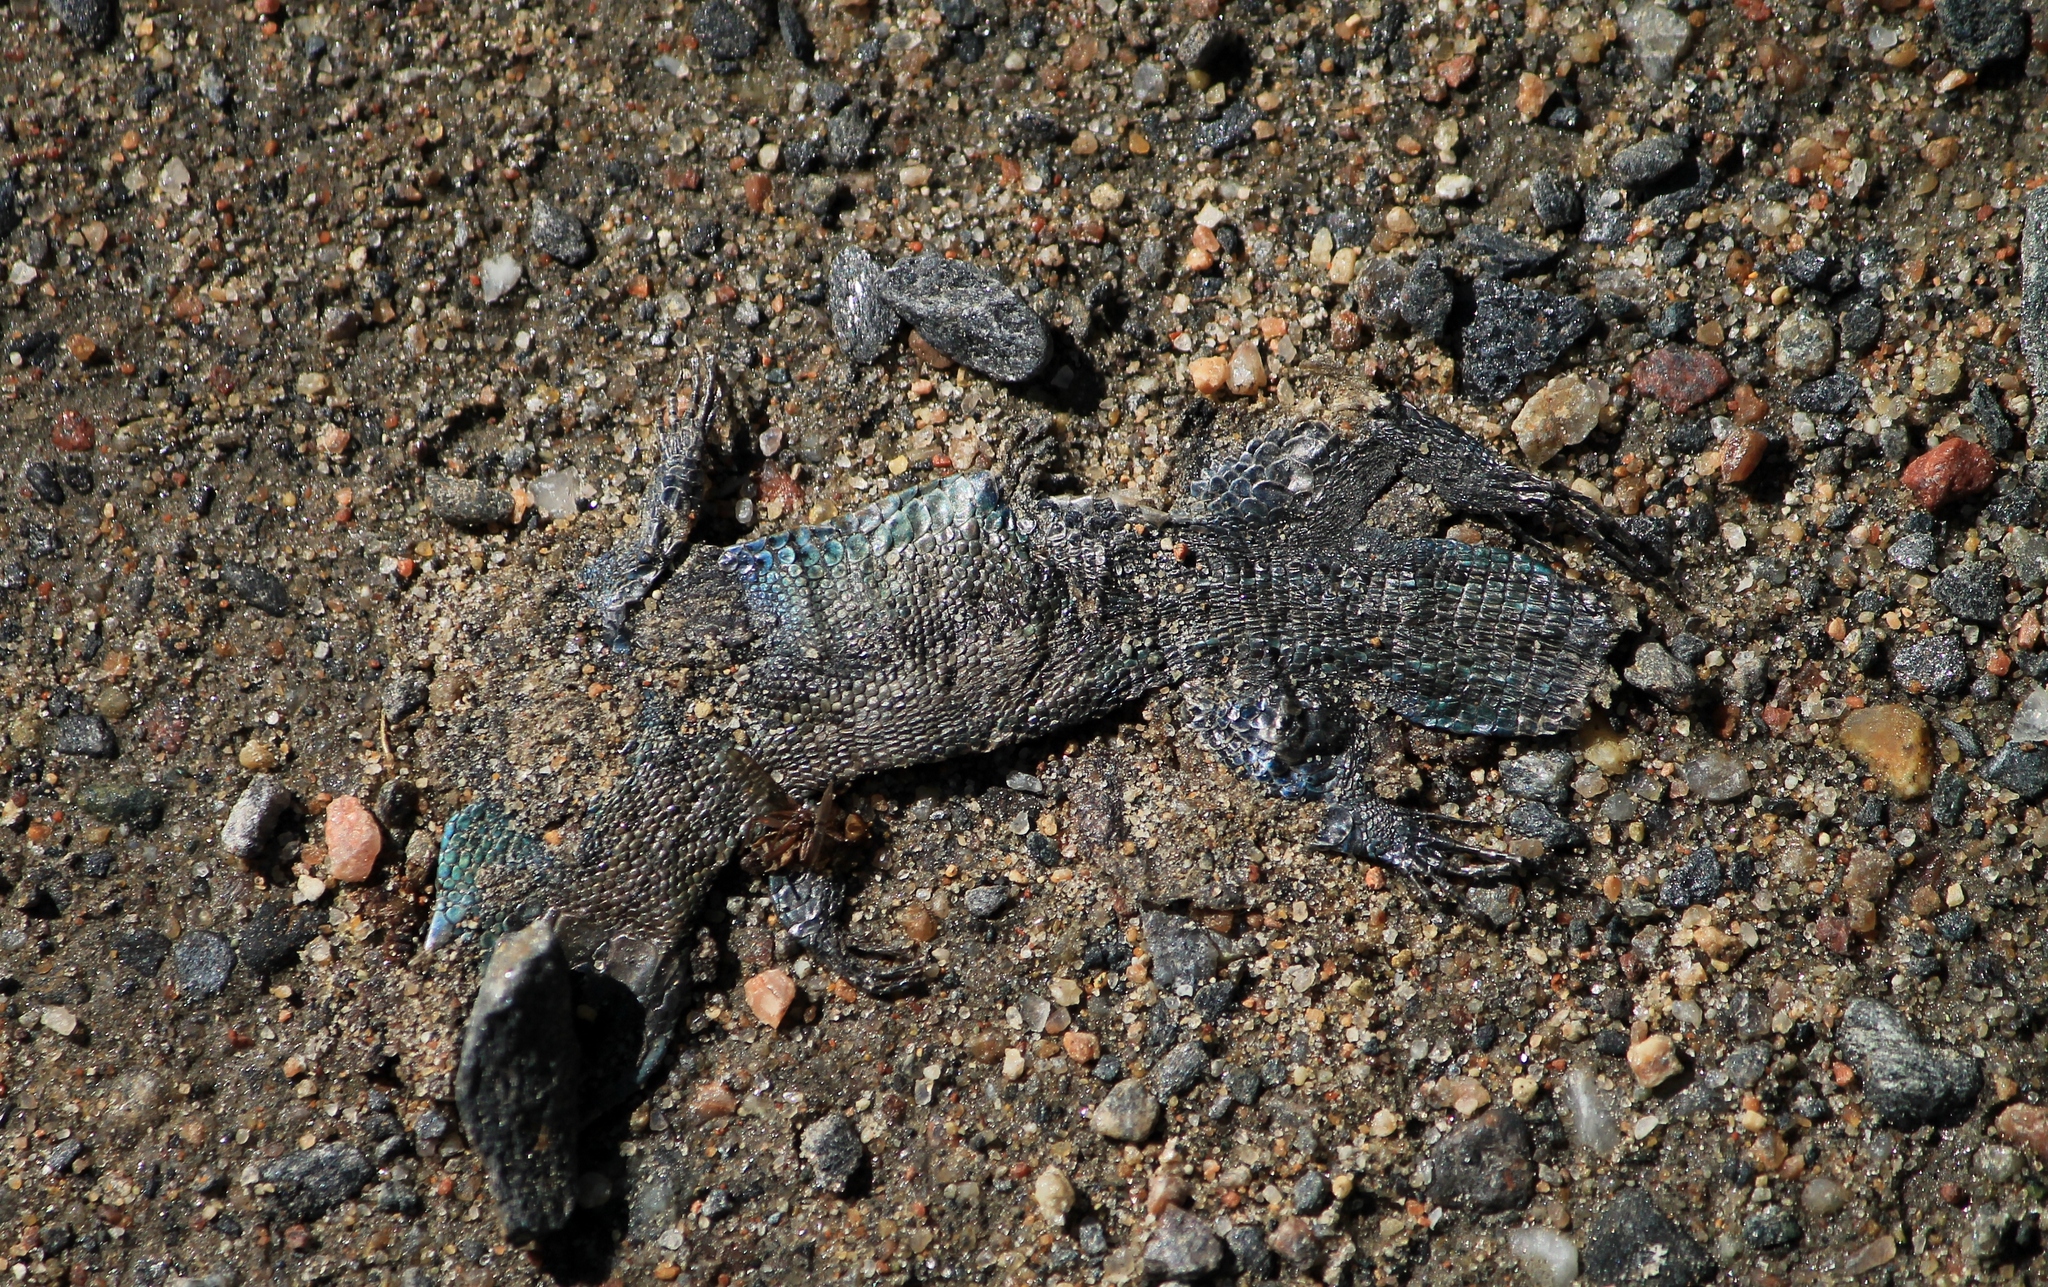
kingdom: Animalia
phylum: Chordata
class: Squamata
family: Lacertidae
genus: Zootoca
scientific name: Zootoca vivipara
